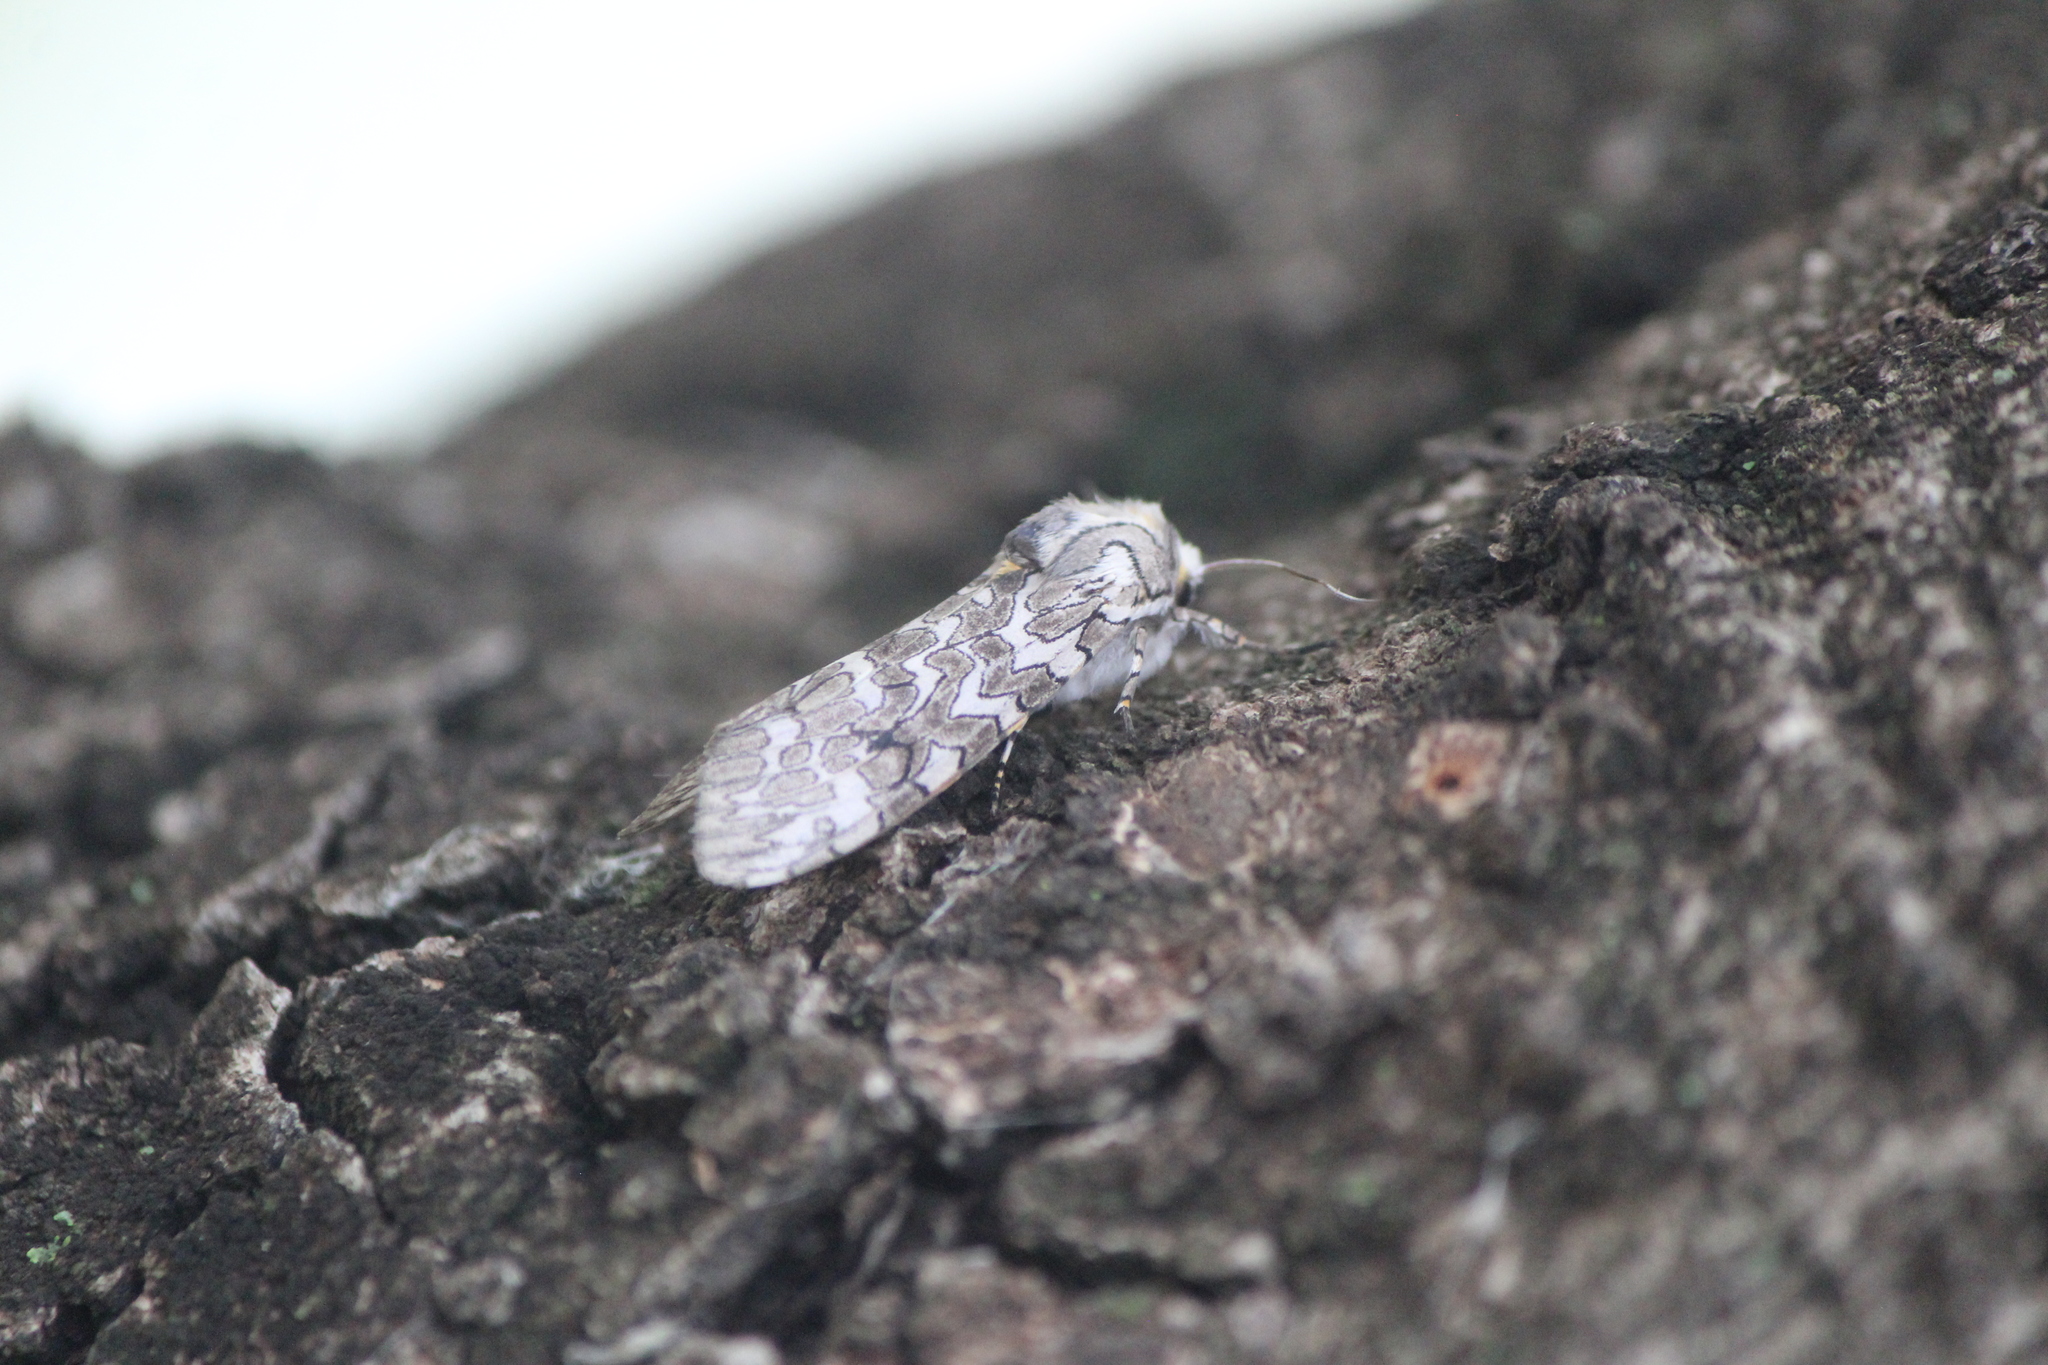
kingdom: Animalia
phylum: Arthropoda
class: Insecta
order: Lepidoptera
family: Erebidae
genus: Hypercompe
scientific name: Hypercompe suffusa
